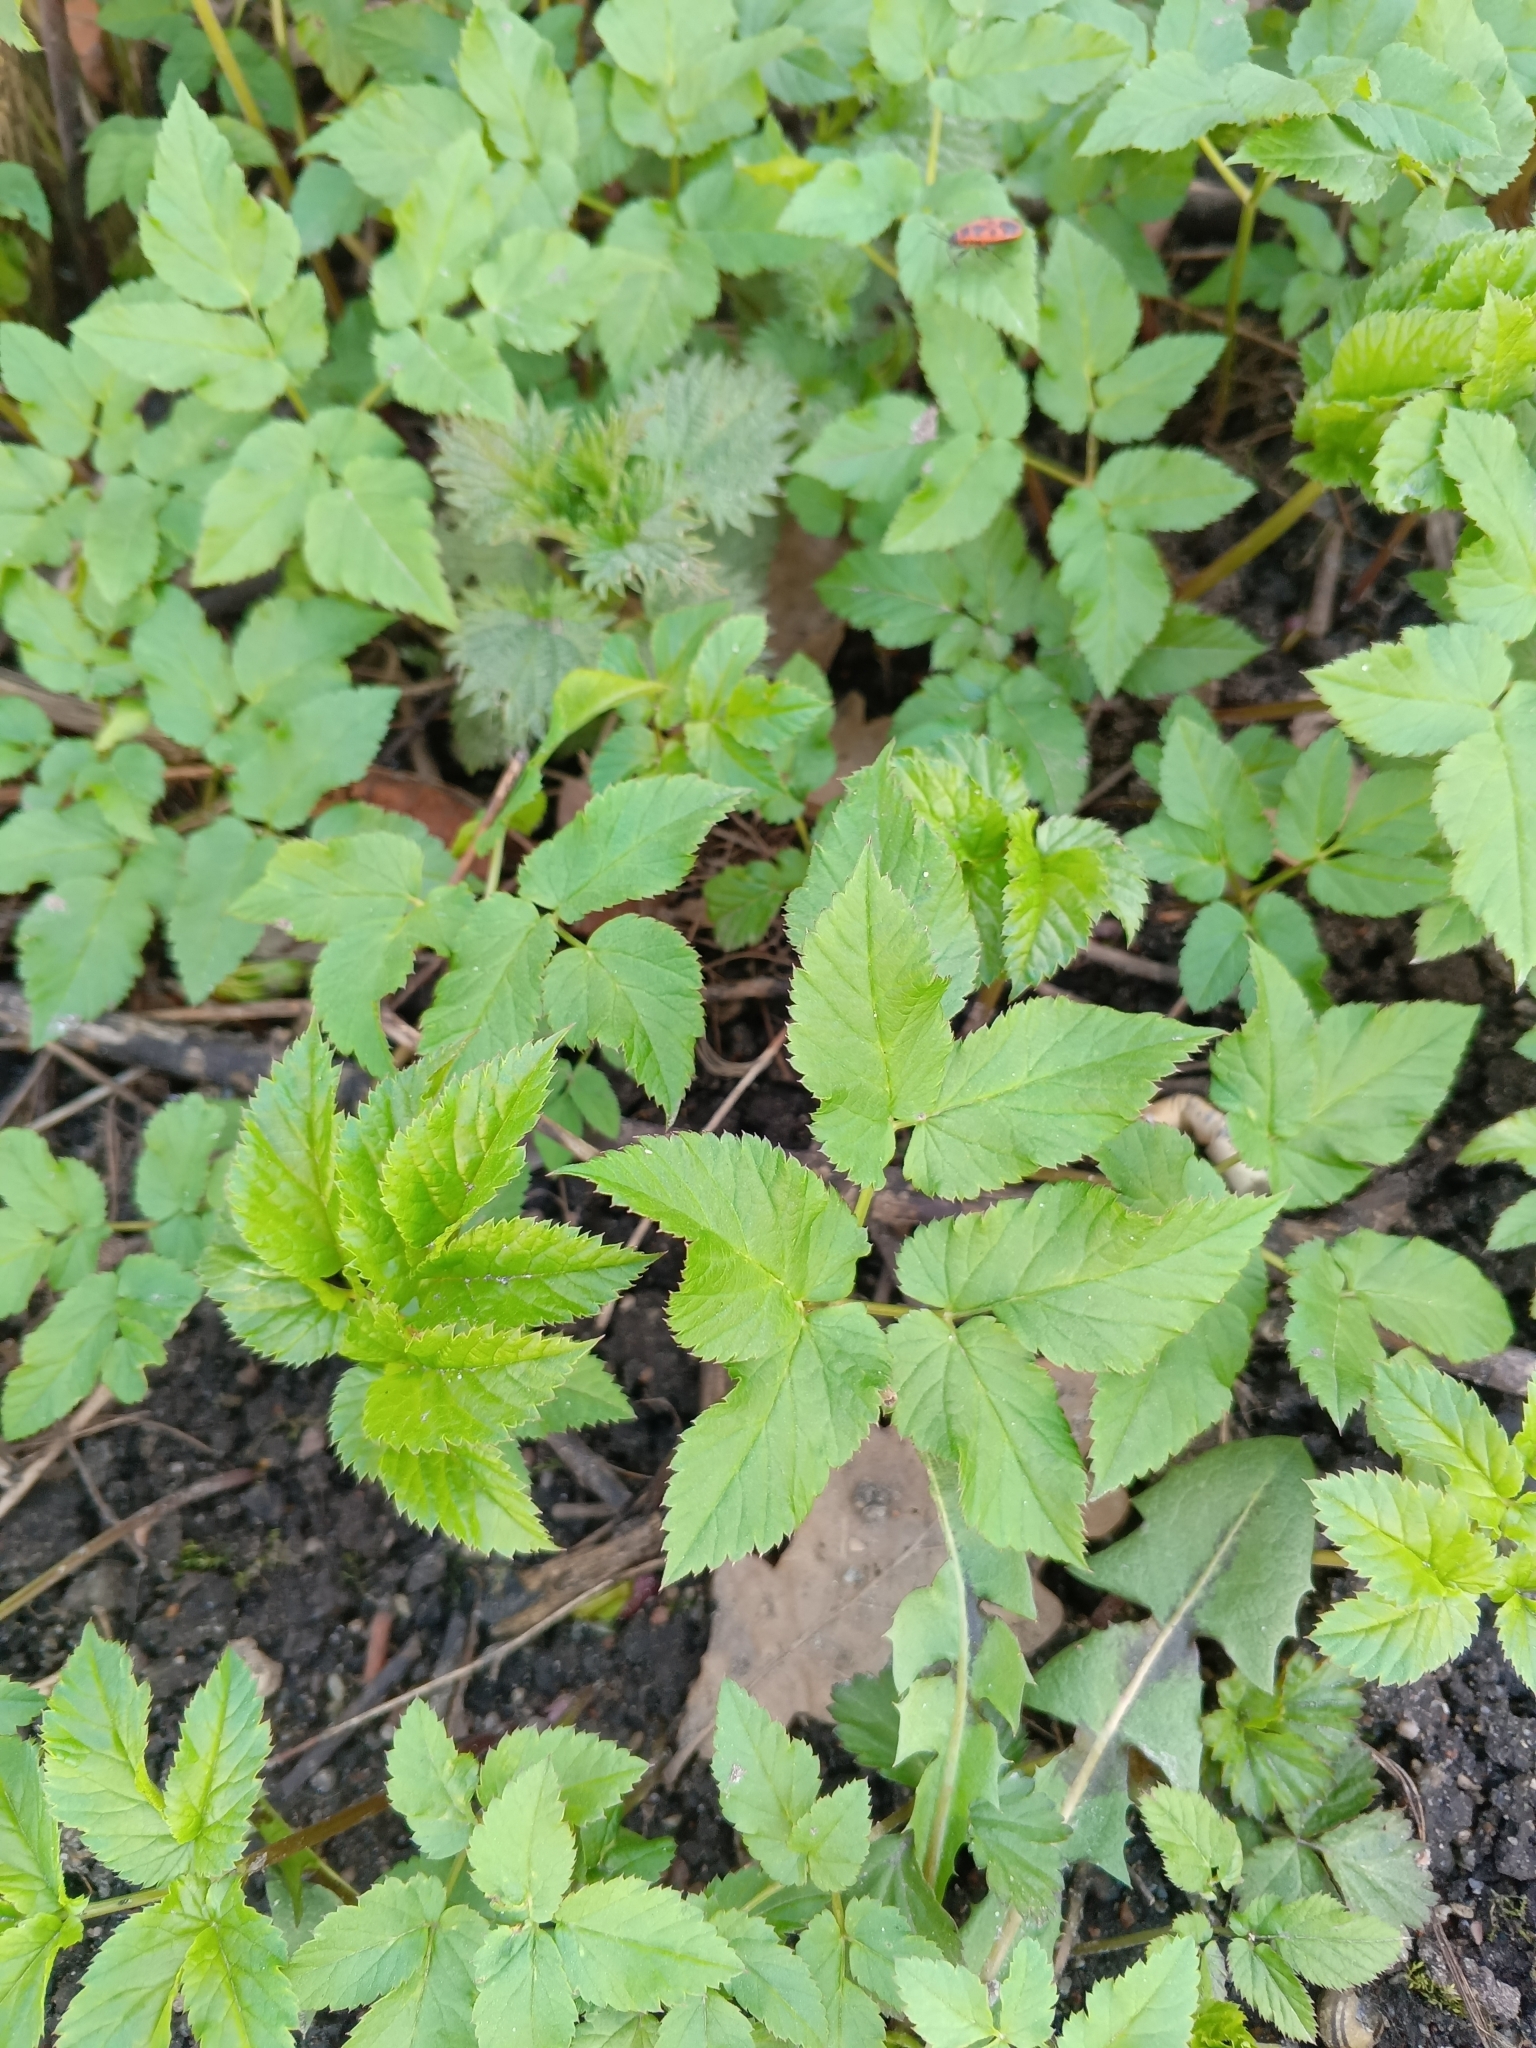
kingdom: Plantae
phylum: Tracheophyta
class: Magnoliopsida
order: Apiales
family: Apiaceae
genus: Aegopodium
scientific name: Aegopodium podagraria
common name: Ground-elder
